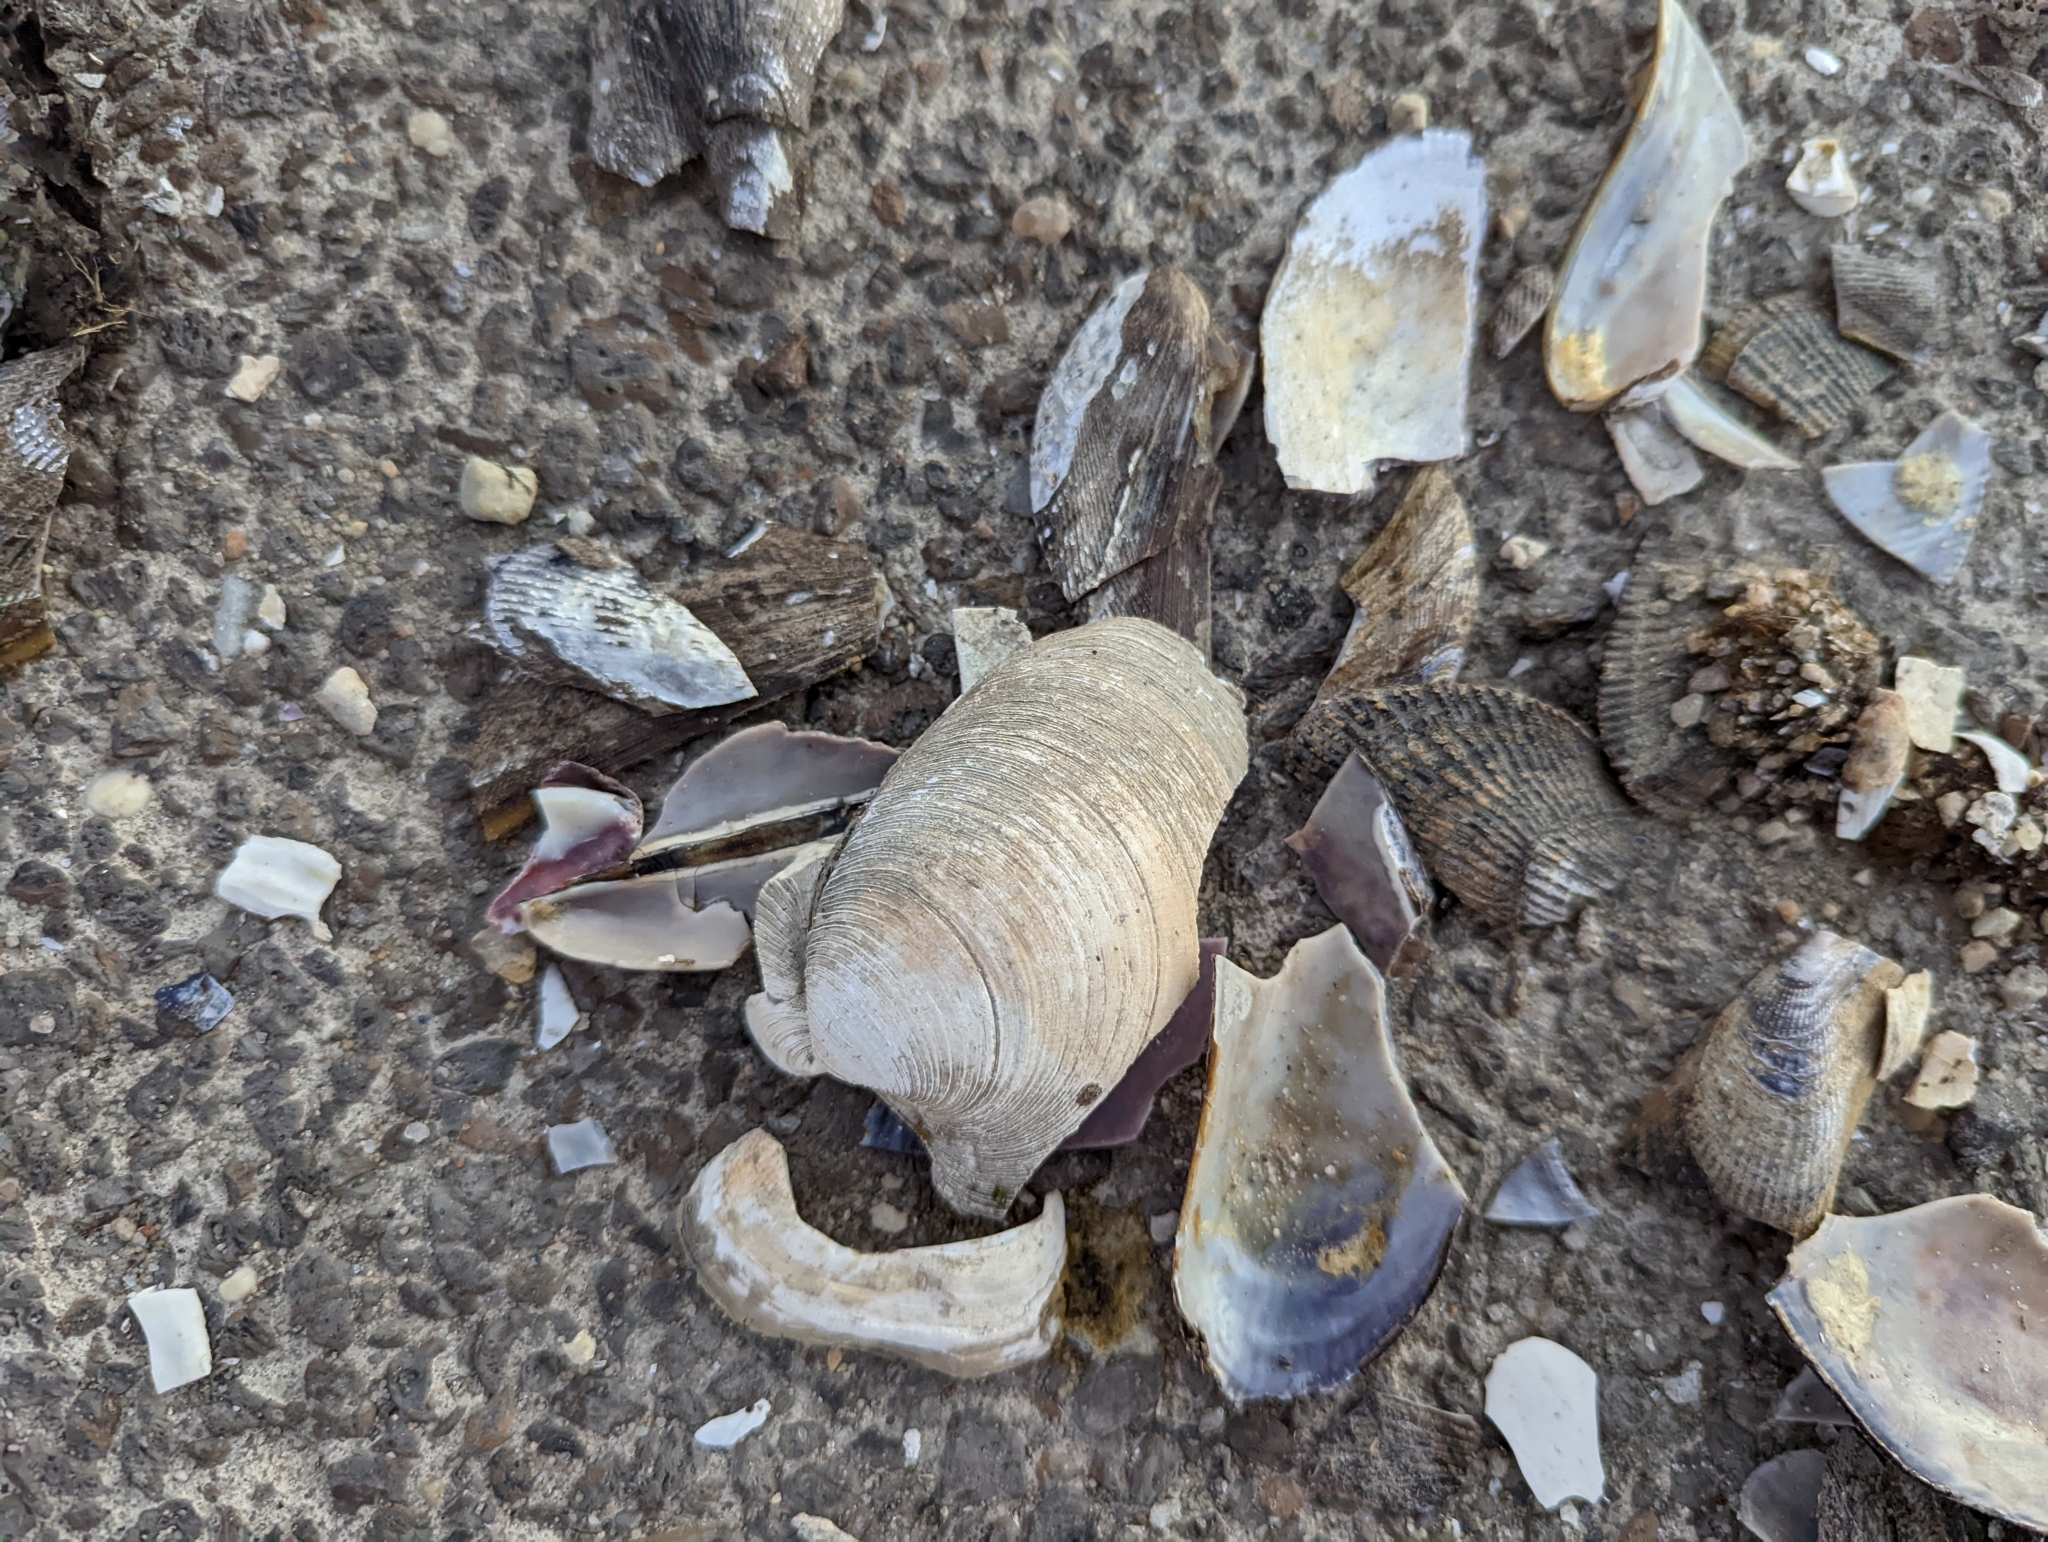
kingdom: Animalia
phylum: Mollusca
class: Bivalvia
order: Mytilida
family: Mytilidae
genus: Geukensia
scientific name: Geukensia demissa
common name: Ribbed mussel
